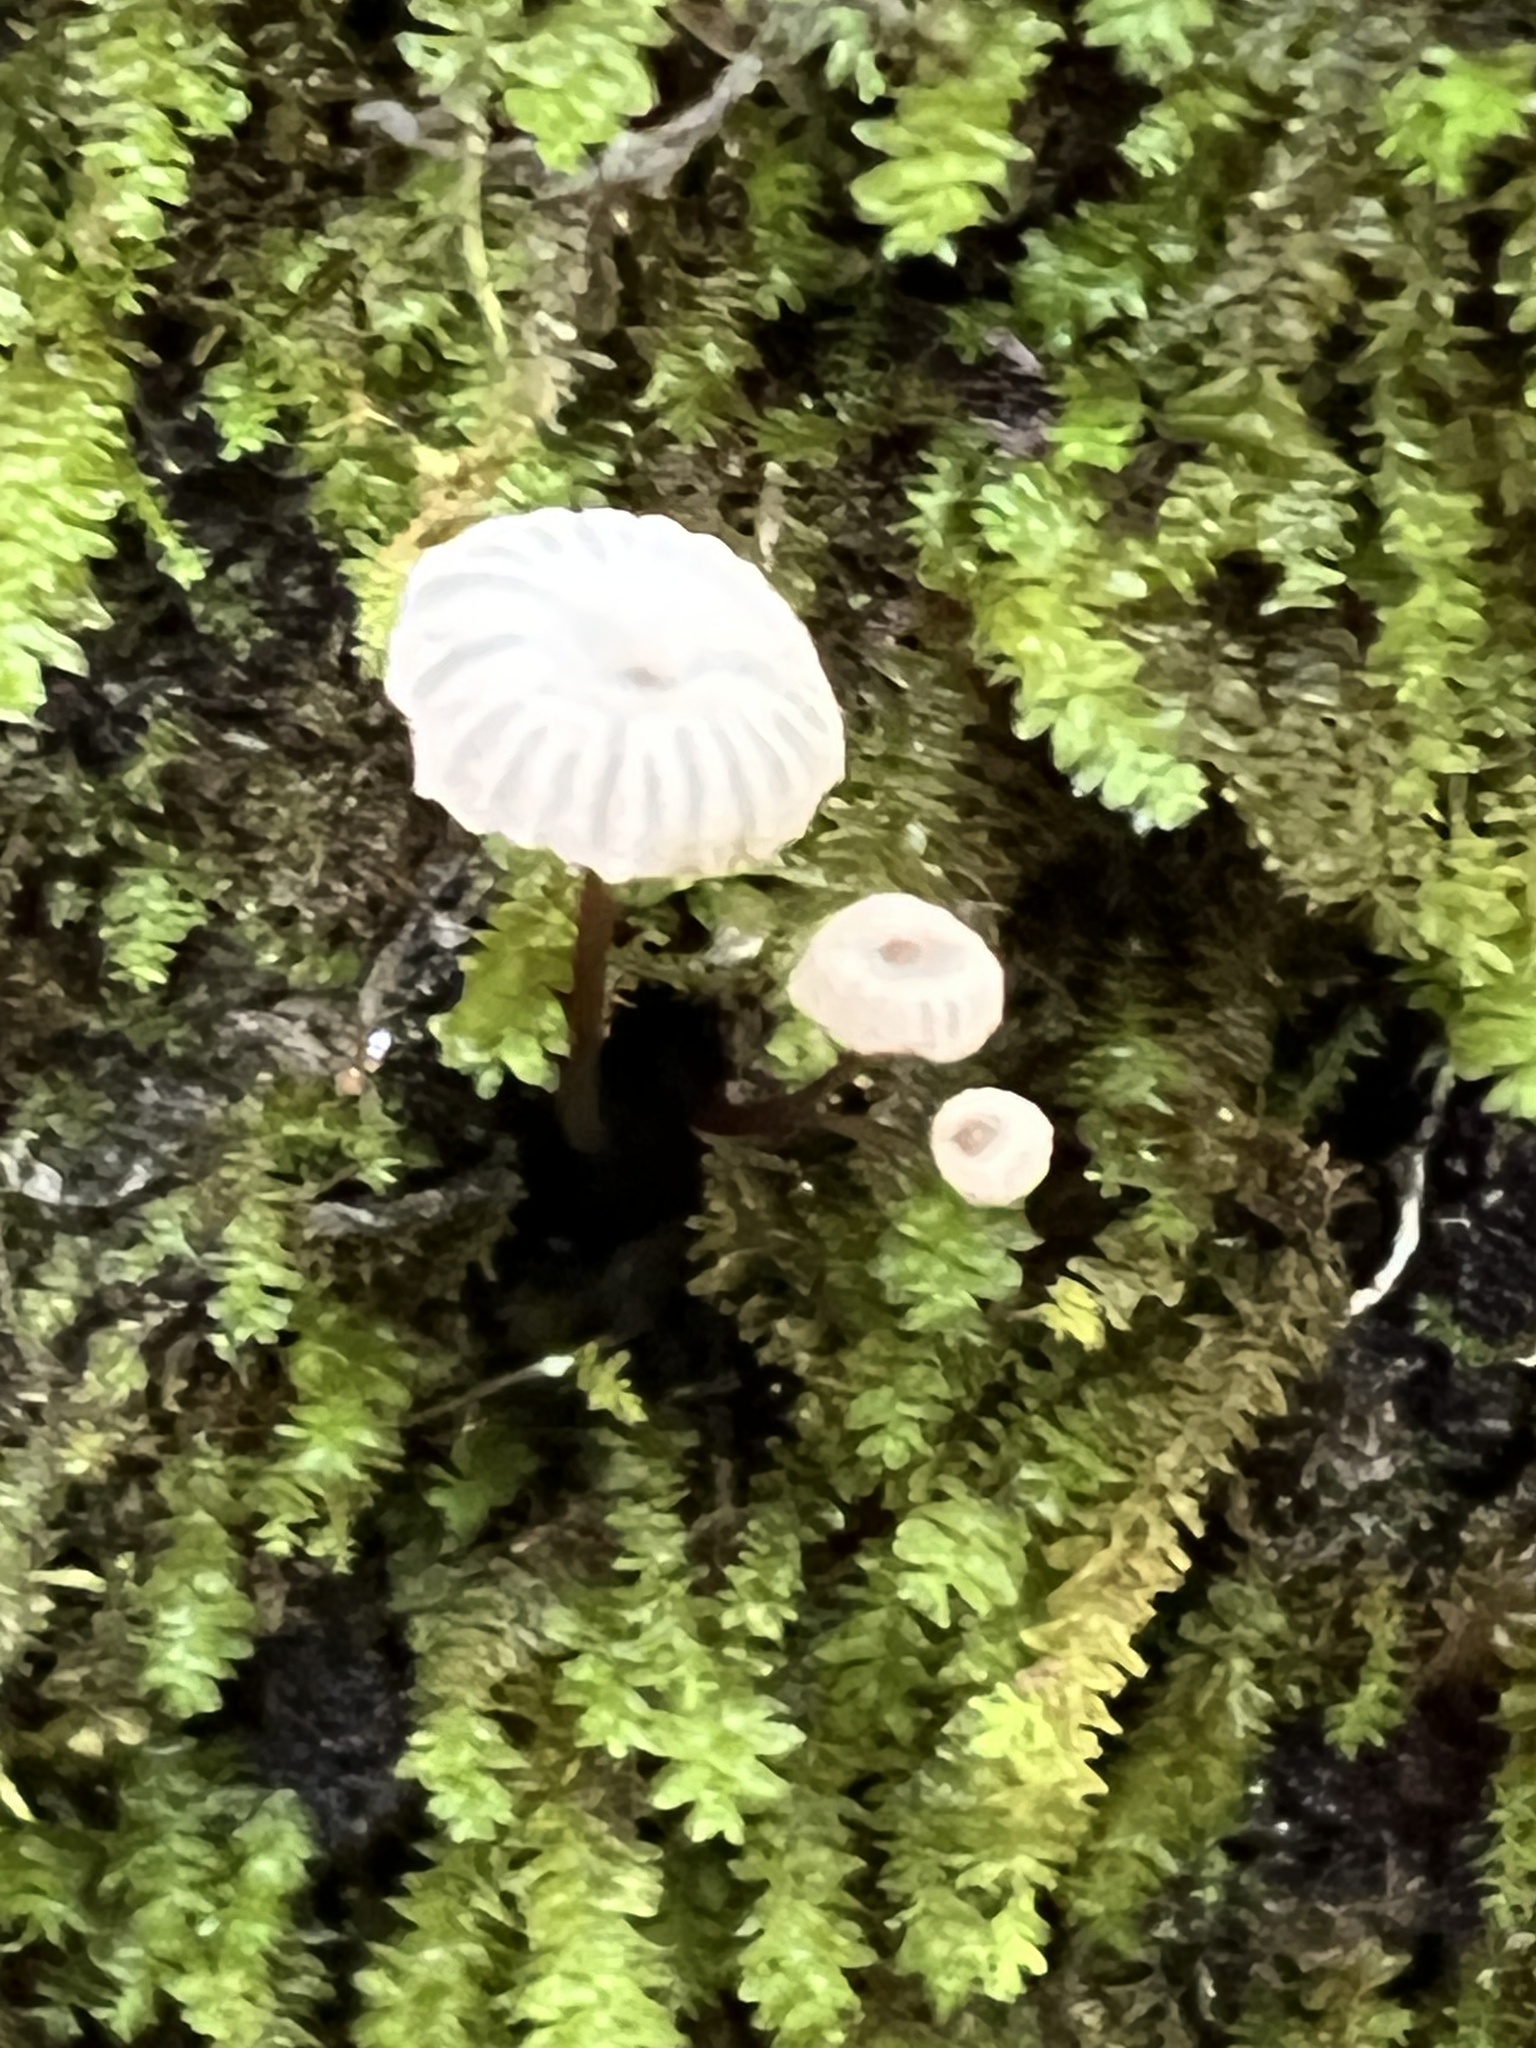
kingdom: Fungi
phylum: Basidiomycota
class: Agaricomycetes
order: Agaricales
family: Marasmiaceae
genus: Marasmius
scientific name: Marasmius rotula
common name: Collared parachute
